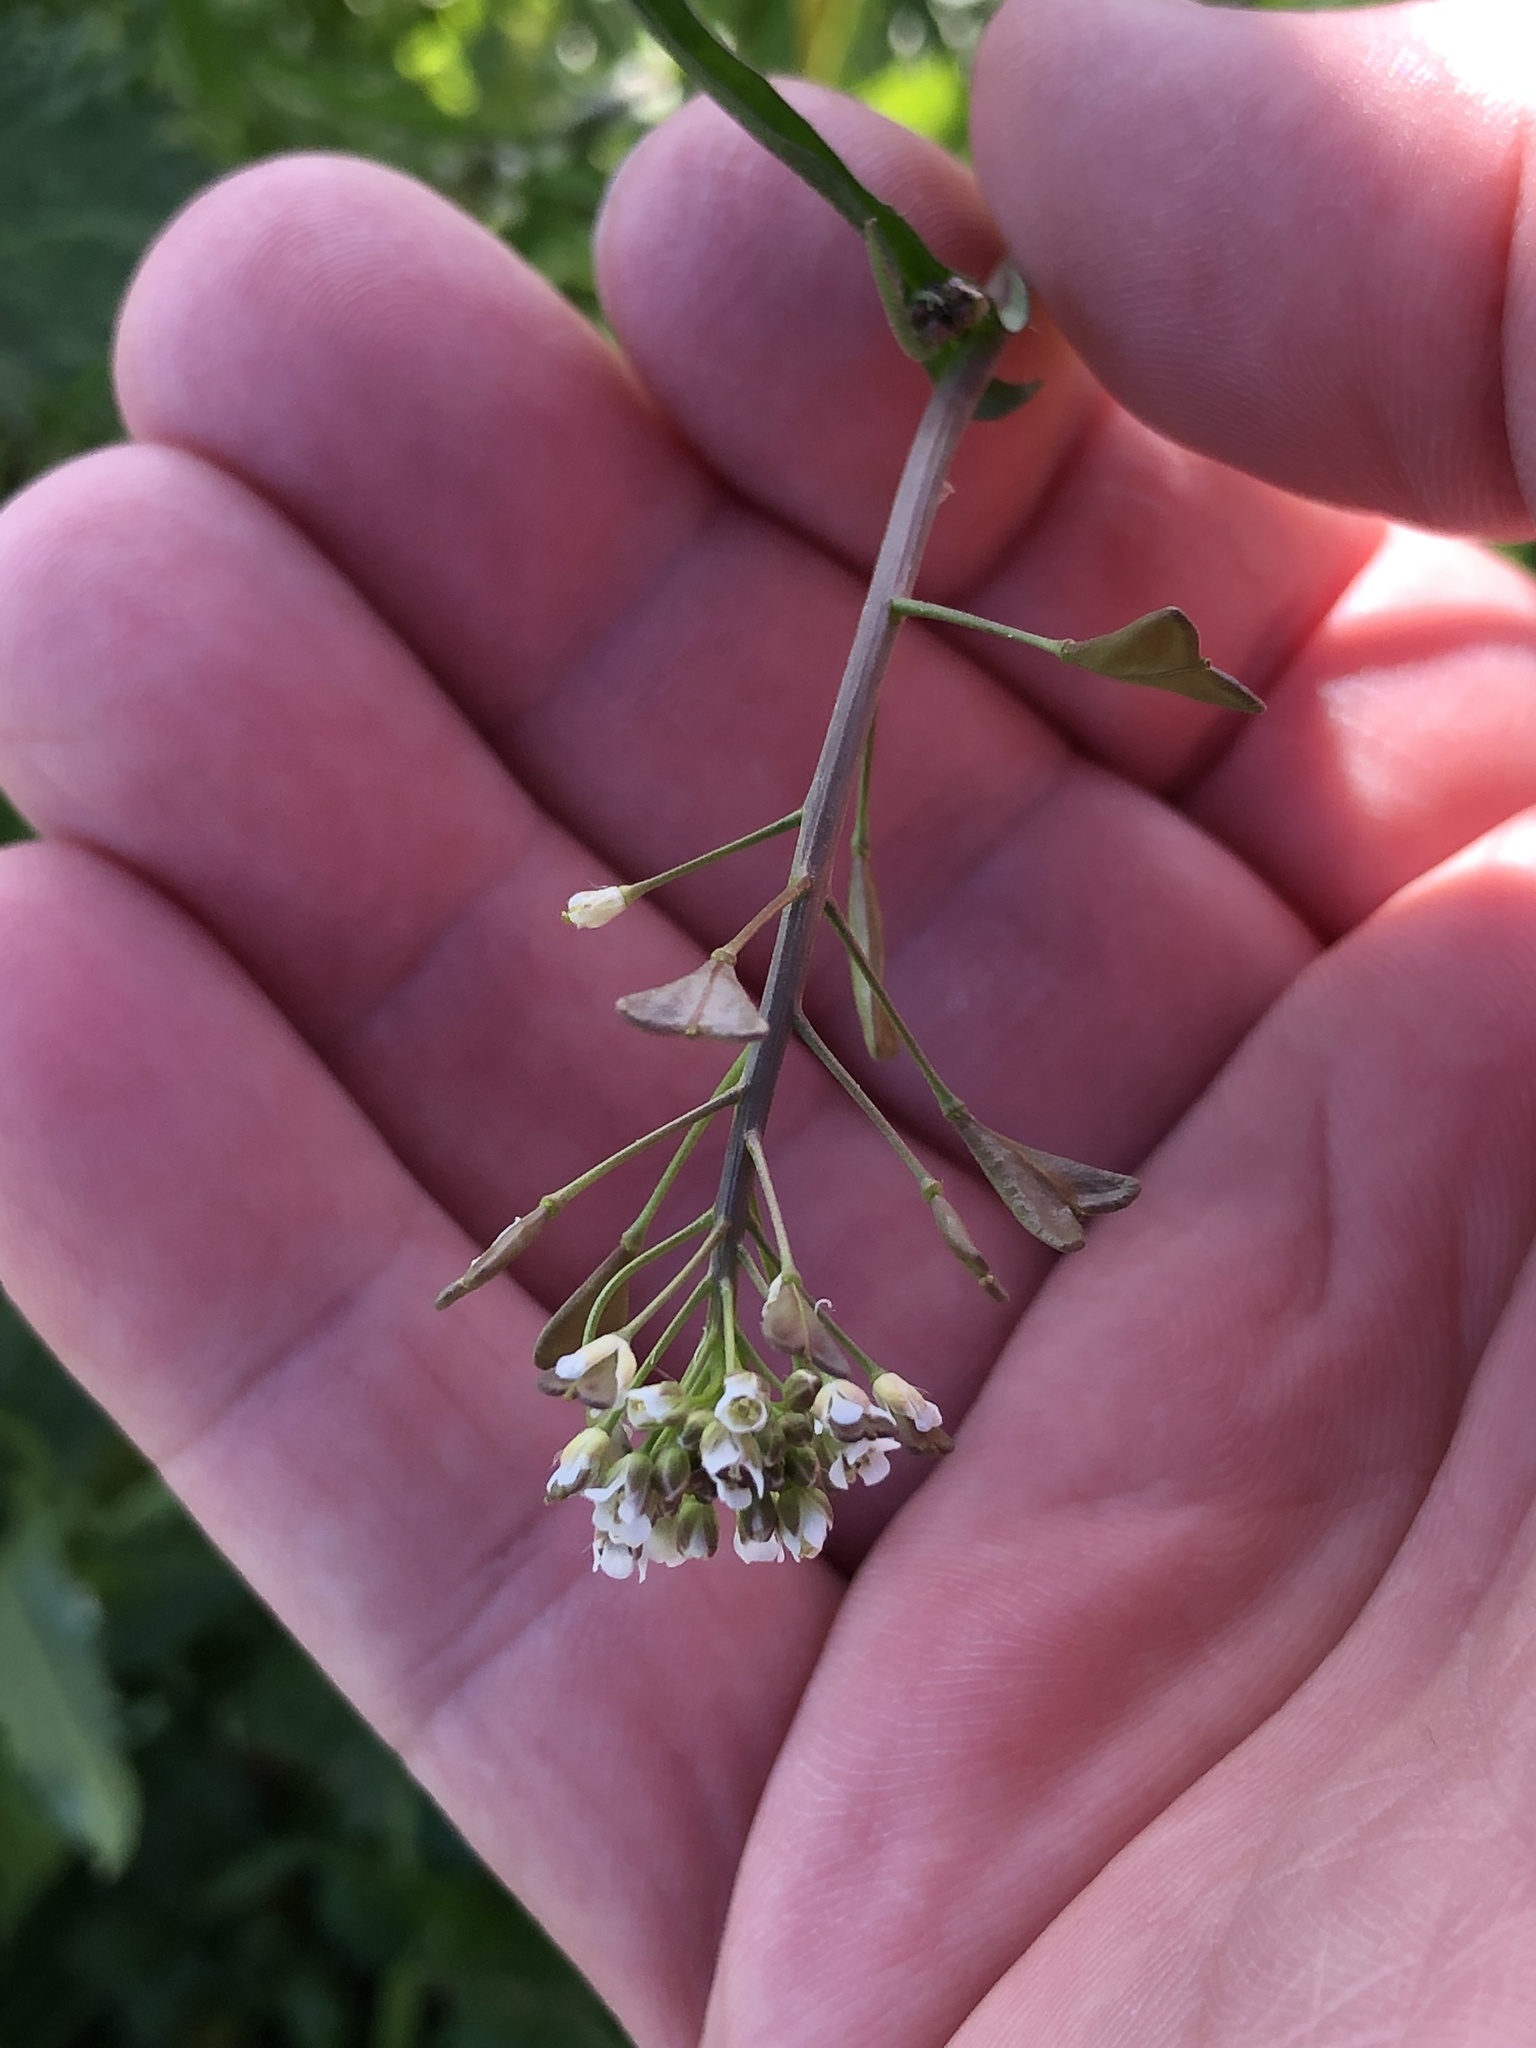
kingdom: Plantae
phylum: Tracheophyta
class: Magnoliopsida
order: Brassicales
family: Brassicaceae
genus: Capsella
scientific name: Capsella bursa-pastoris
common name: Shepherd's purse
